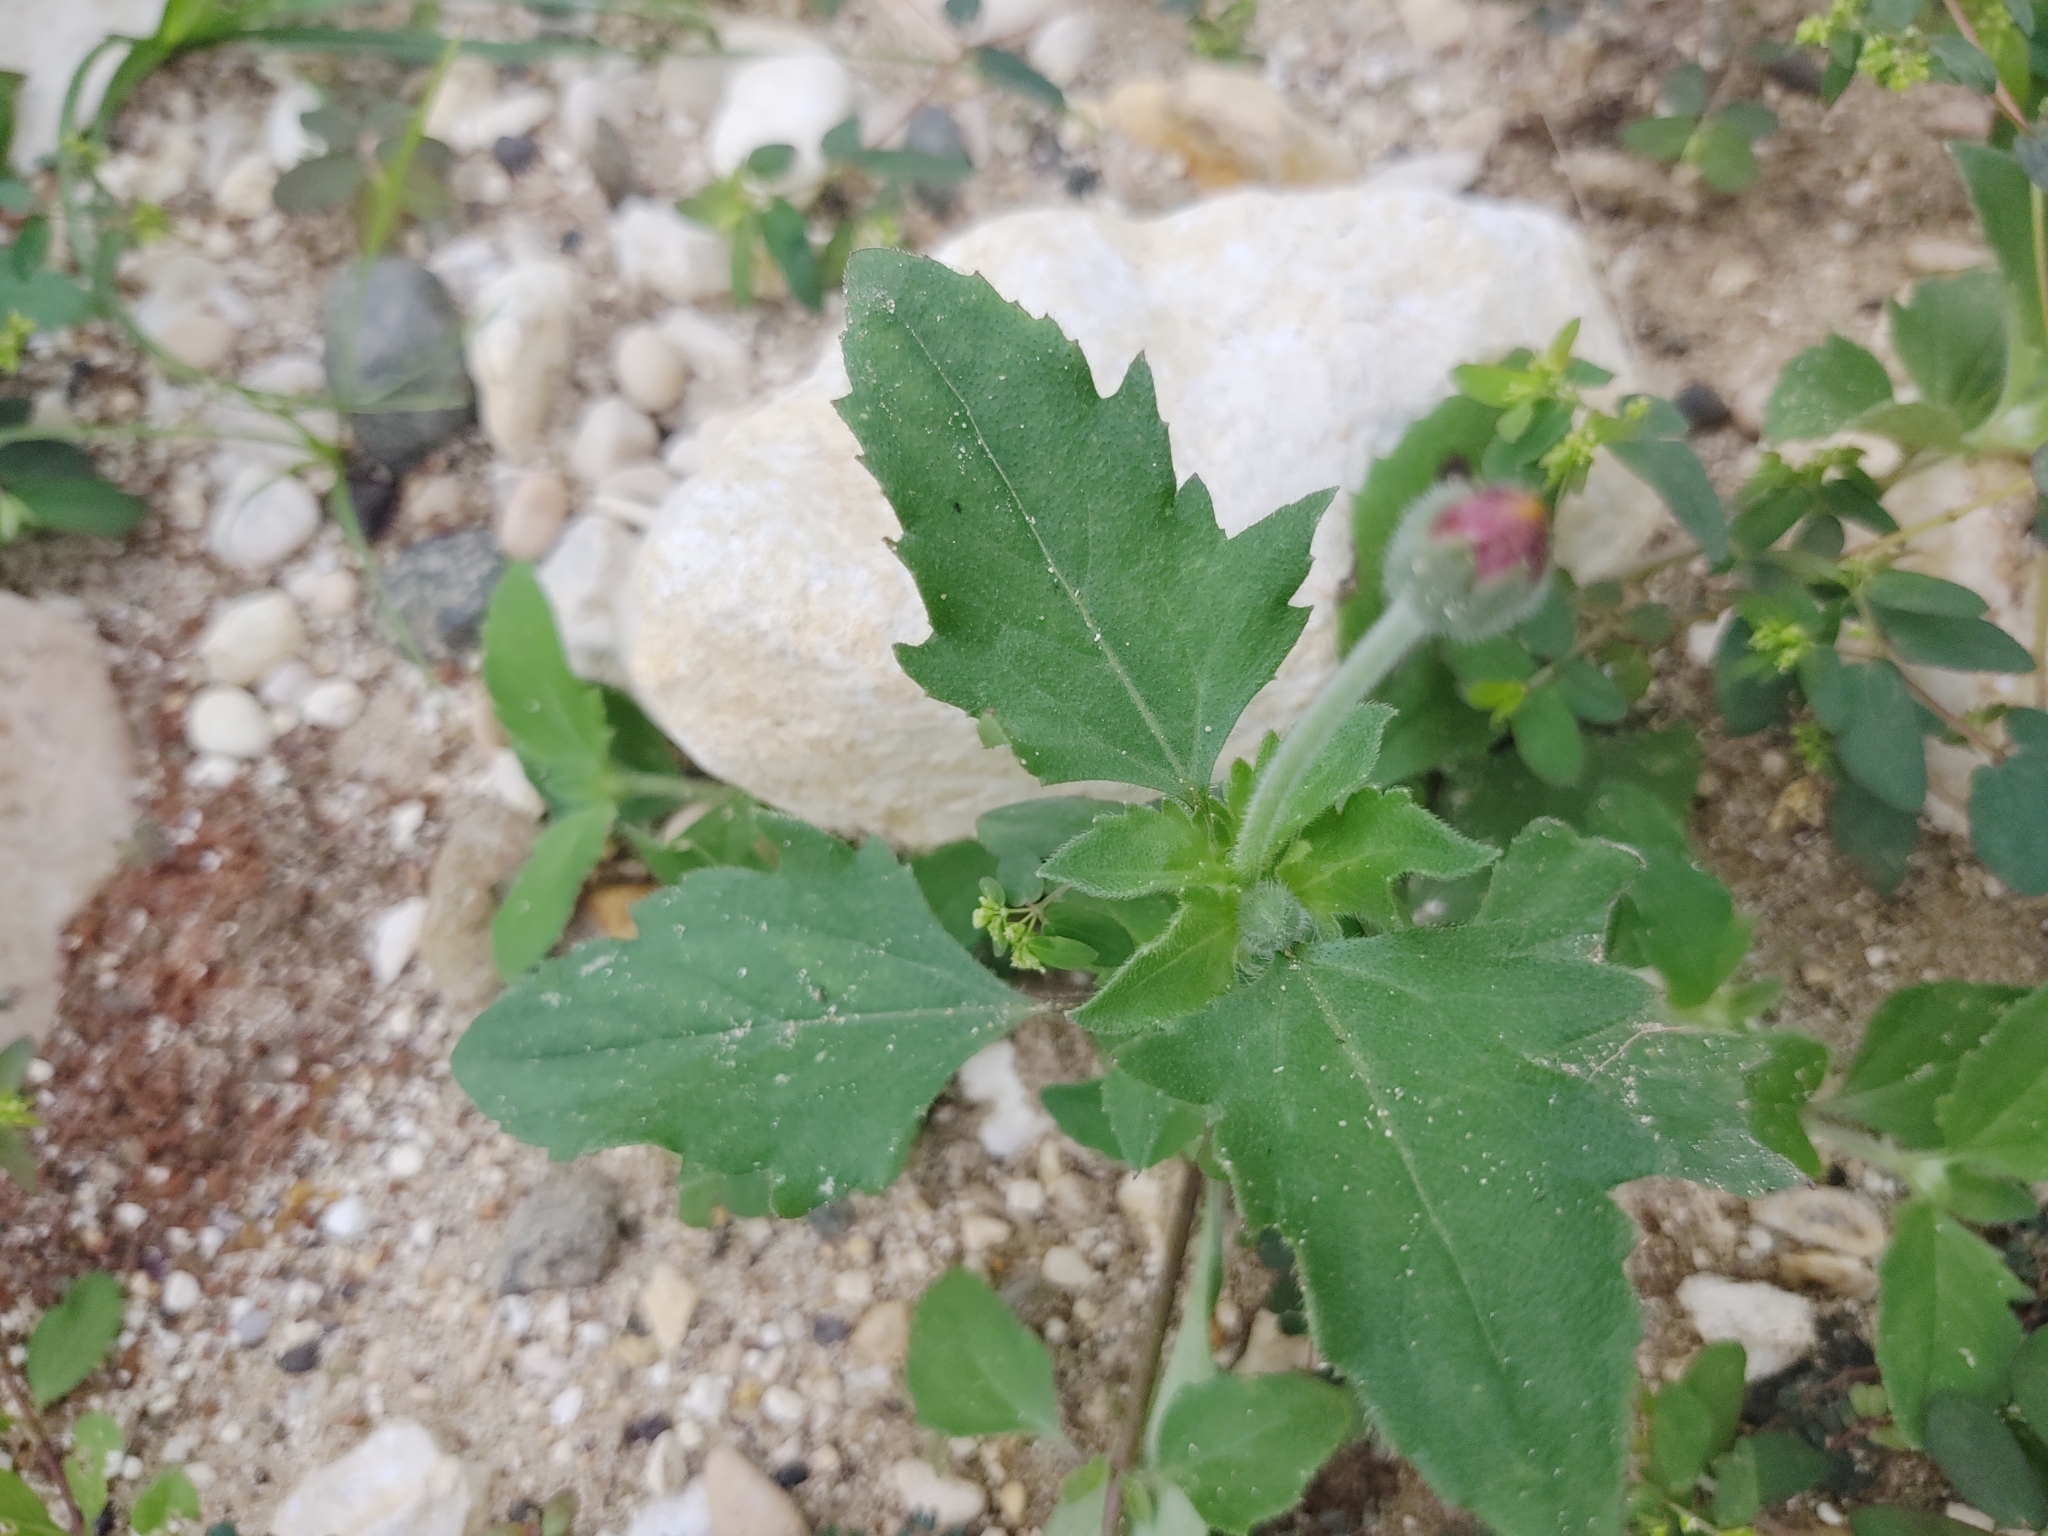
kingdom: Plantae
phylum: Tracheophyta
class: Magnoliopsida
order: Asterales
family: Asteraceae
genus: Tridax
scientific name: Tridax procumbens
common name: Coatbuttons
